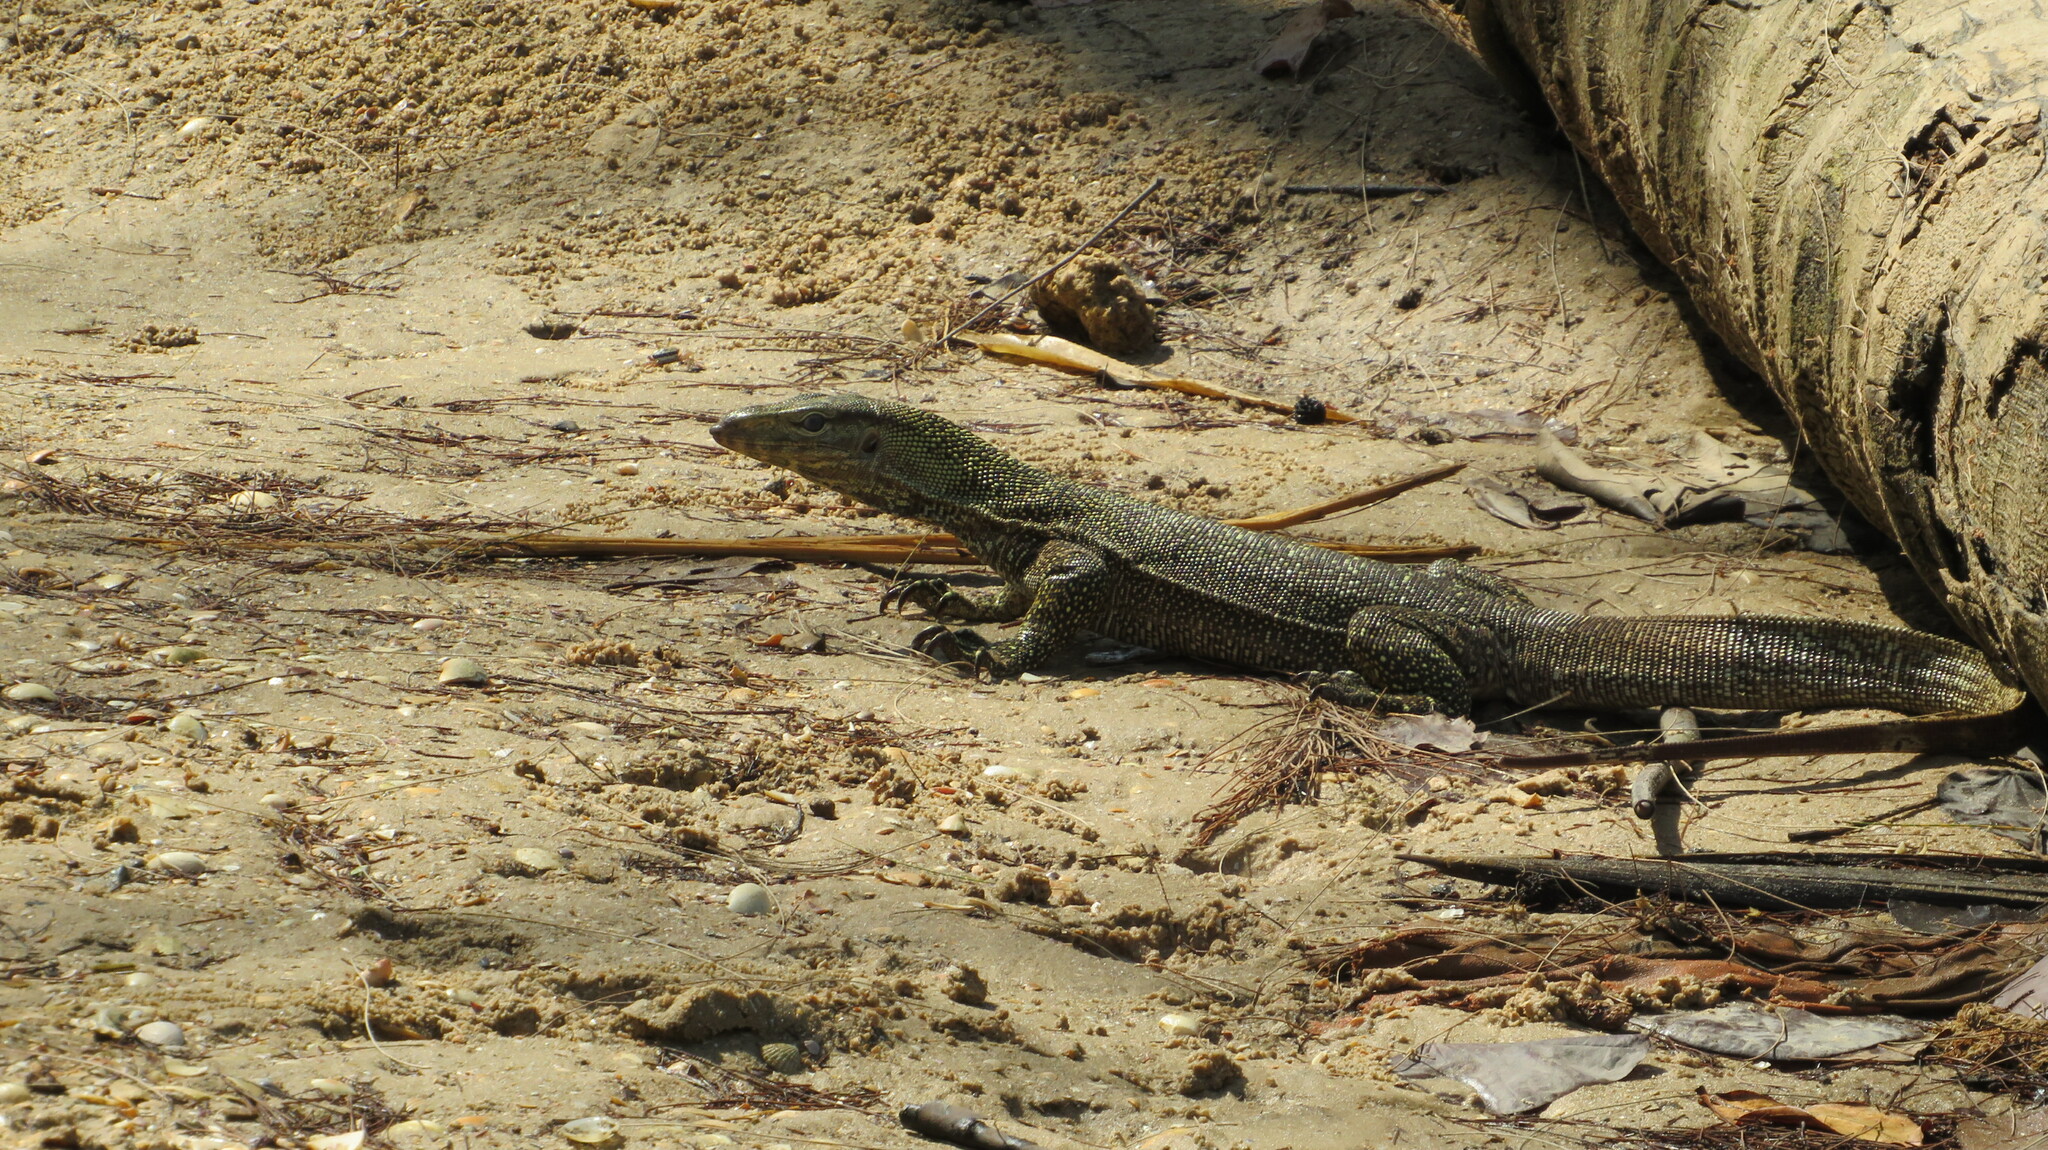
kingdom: Animalia
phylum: Chordata
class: Squamata
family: Varanidae
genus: Varanus
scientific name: Varanus nebulosus
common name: Clouded monitor
